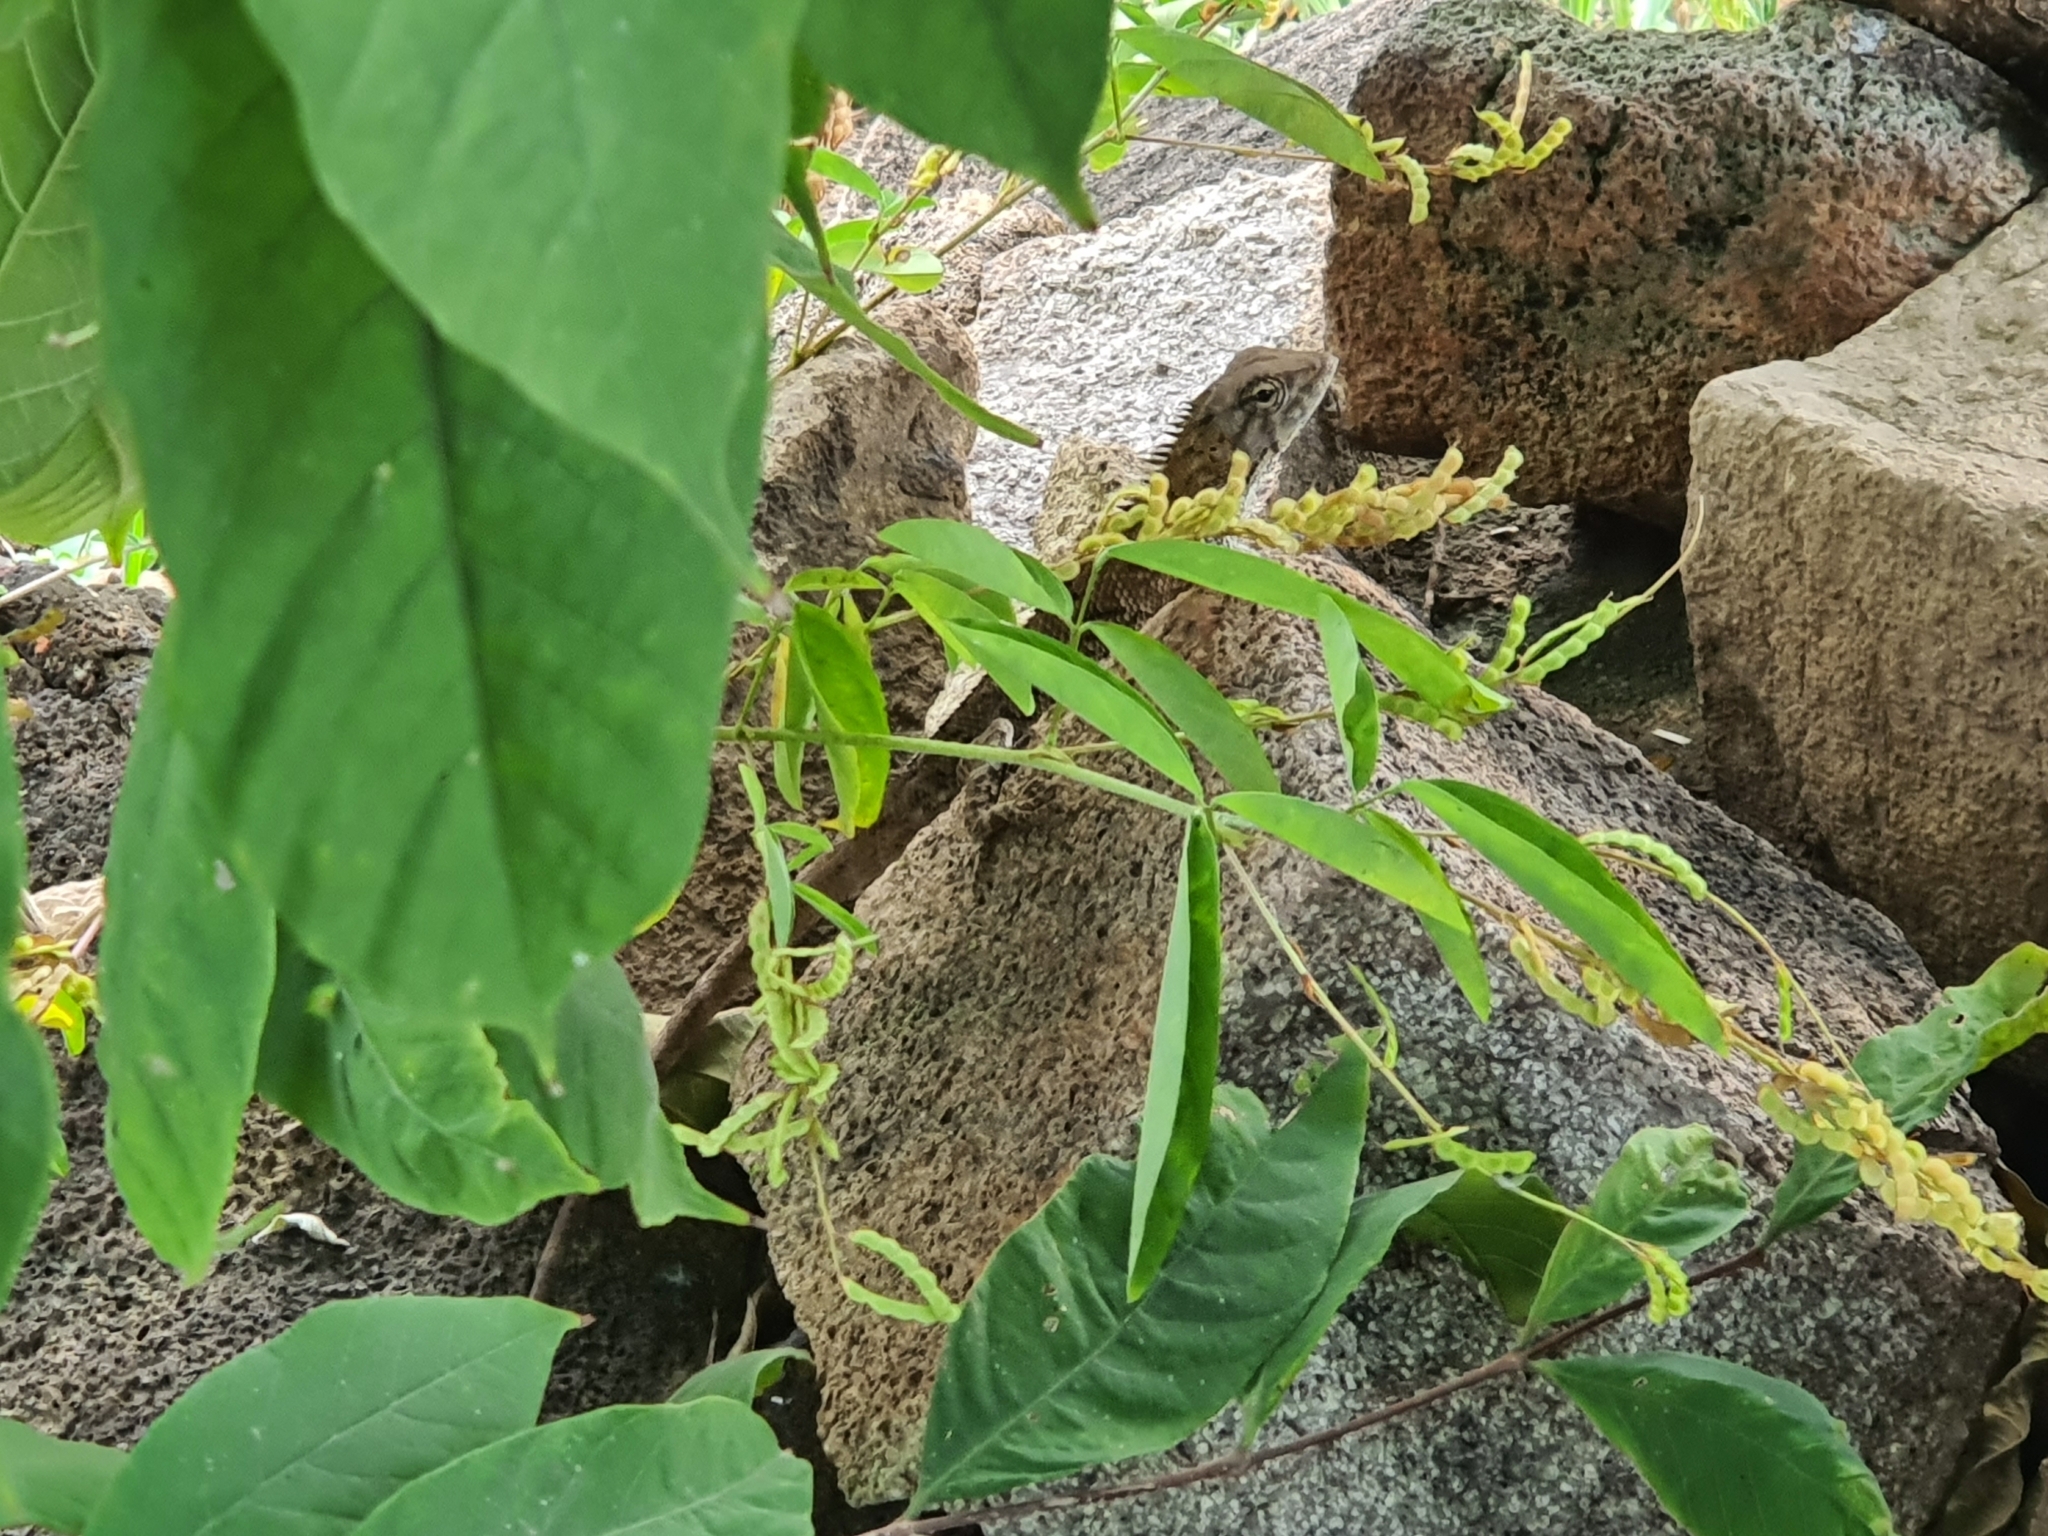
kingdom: Animalia
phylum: Chordata
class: Squamata
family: Agamidae
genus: Calotes
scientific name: Calotes versicolor
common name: Oriental garden lizard
